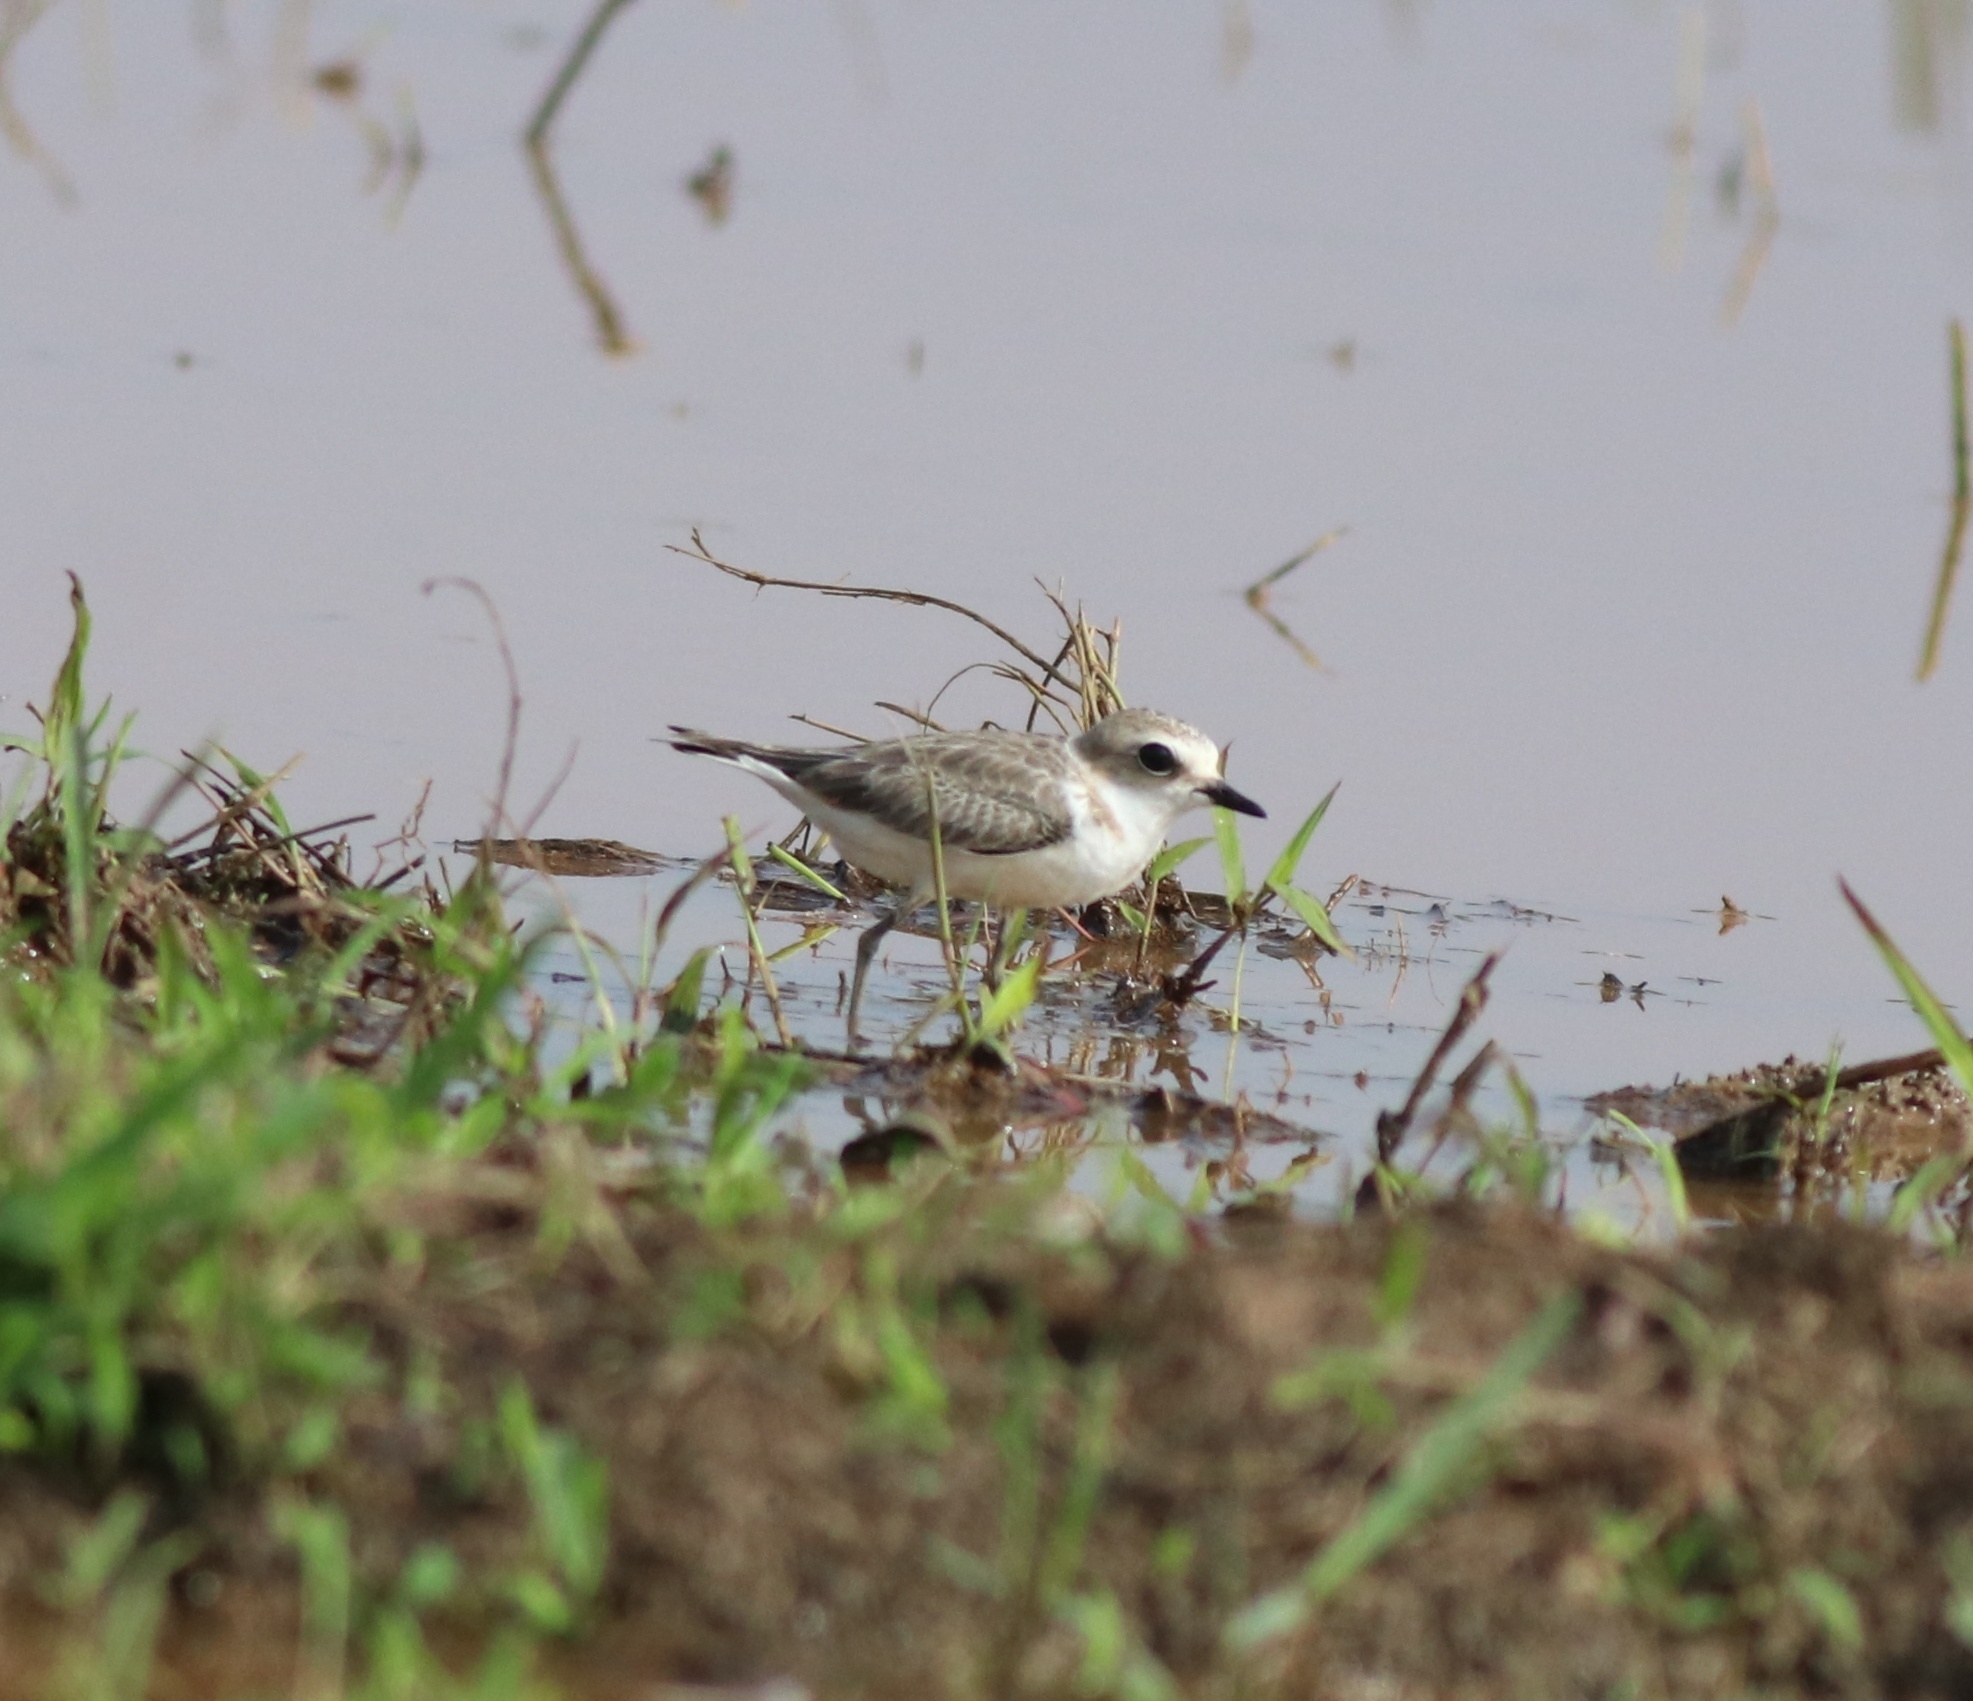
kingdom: Animalia
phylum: Chordata
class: Aves
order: Charadriiformes
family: Charadriidae
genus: Charadrius
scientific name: Charadrius alexandrinus
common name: Kentish plover
